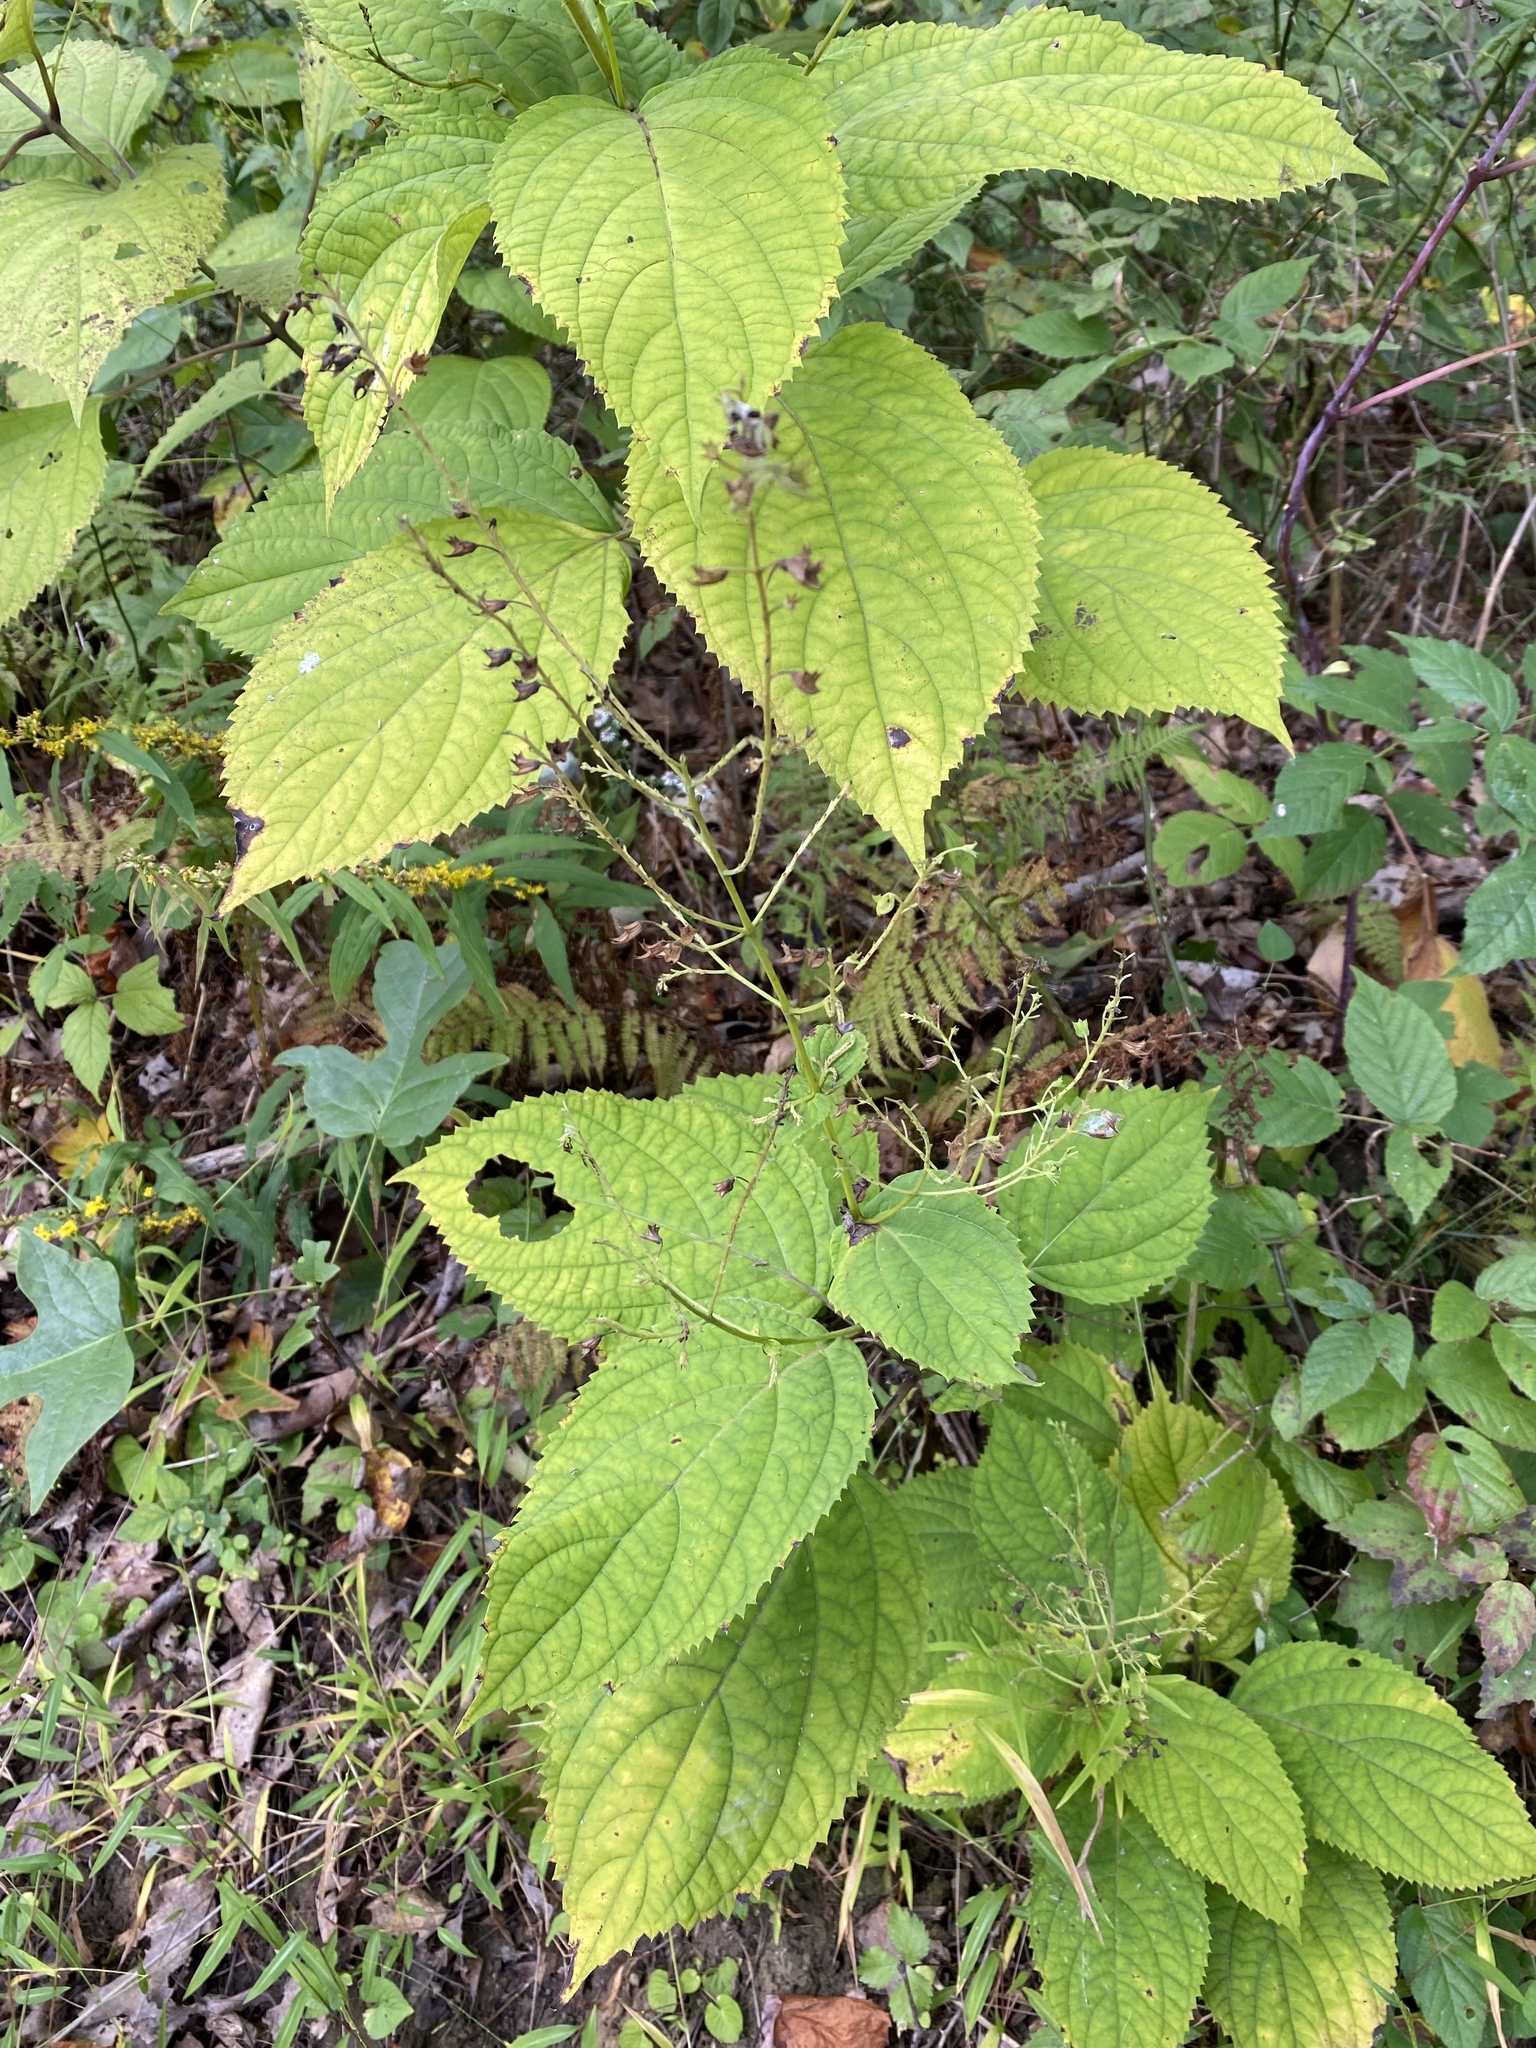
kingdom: Plantae
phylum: Tracheophyta
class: Magnoliopsida
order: Lamiales
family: Lamiaceae
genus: Collinsonia
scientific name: Collinsonia canadensis
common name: Northern horsebalm
